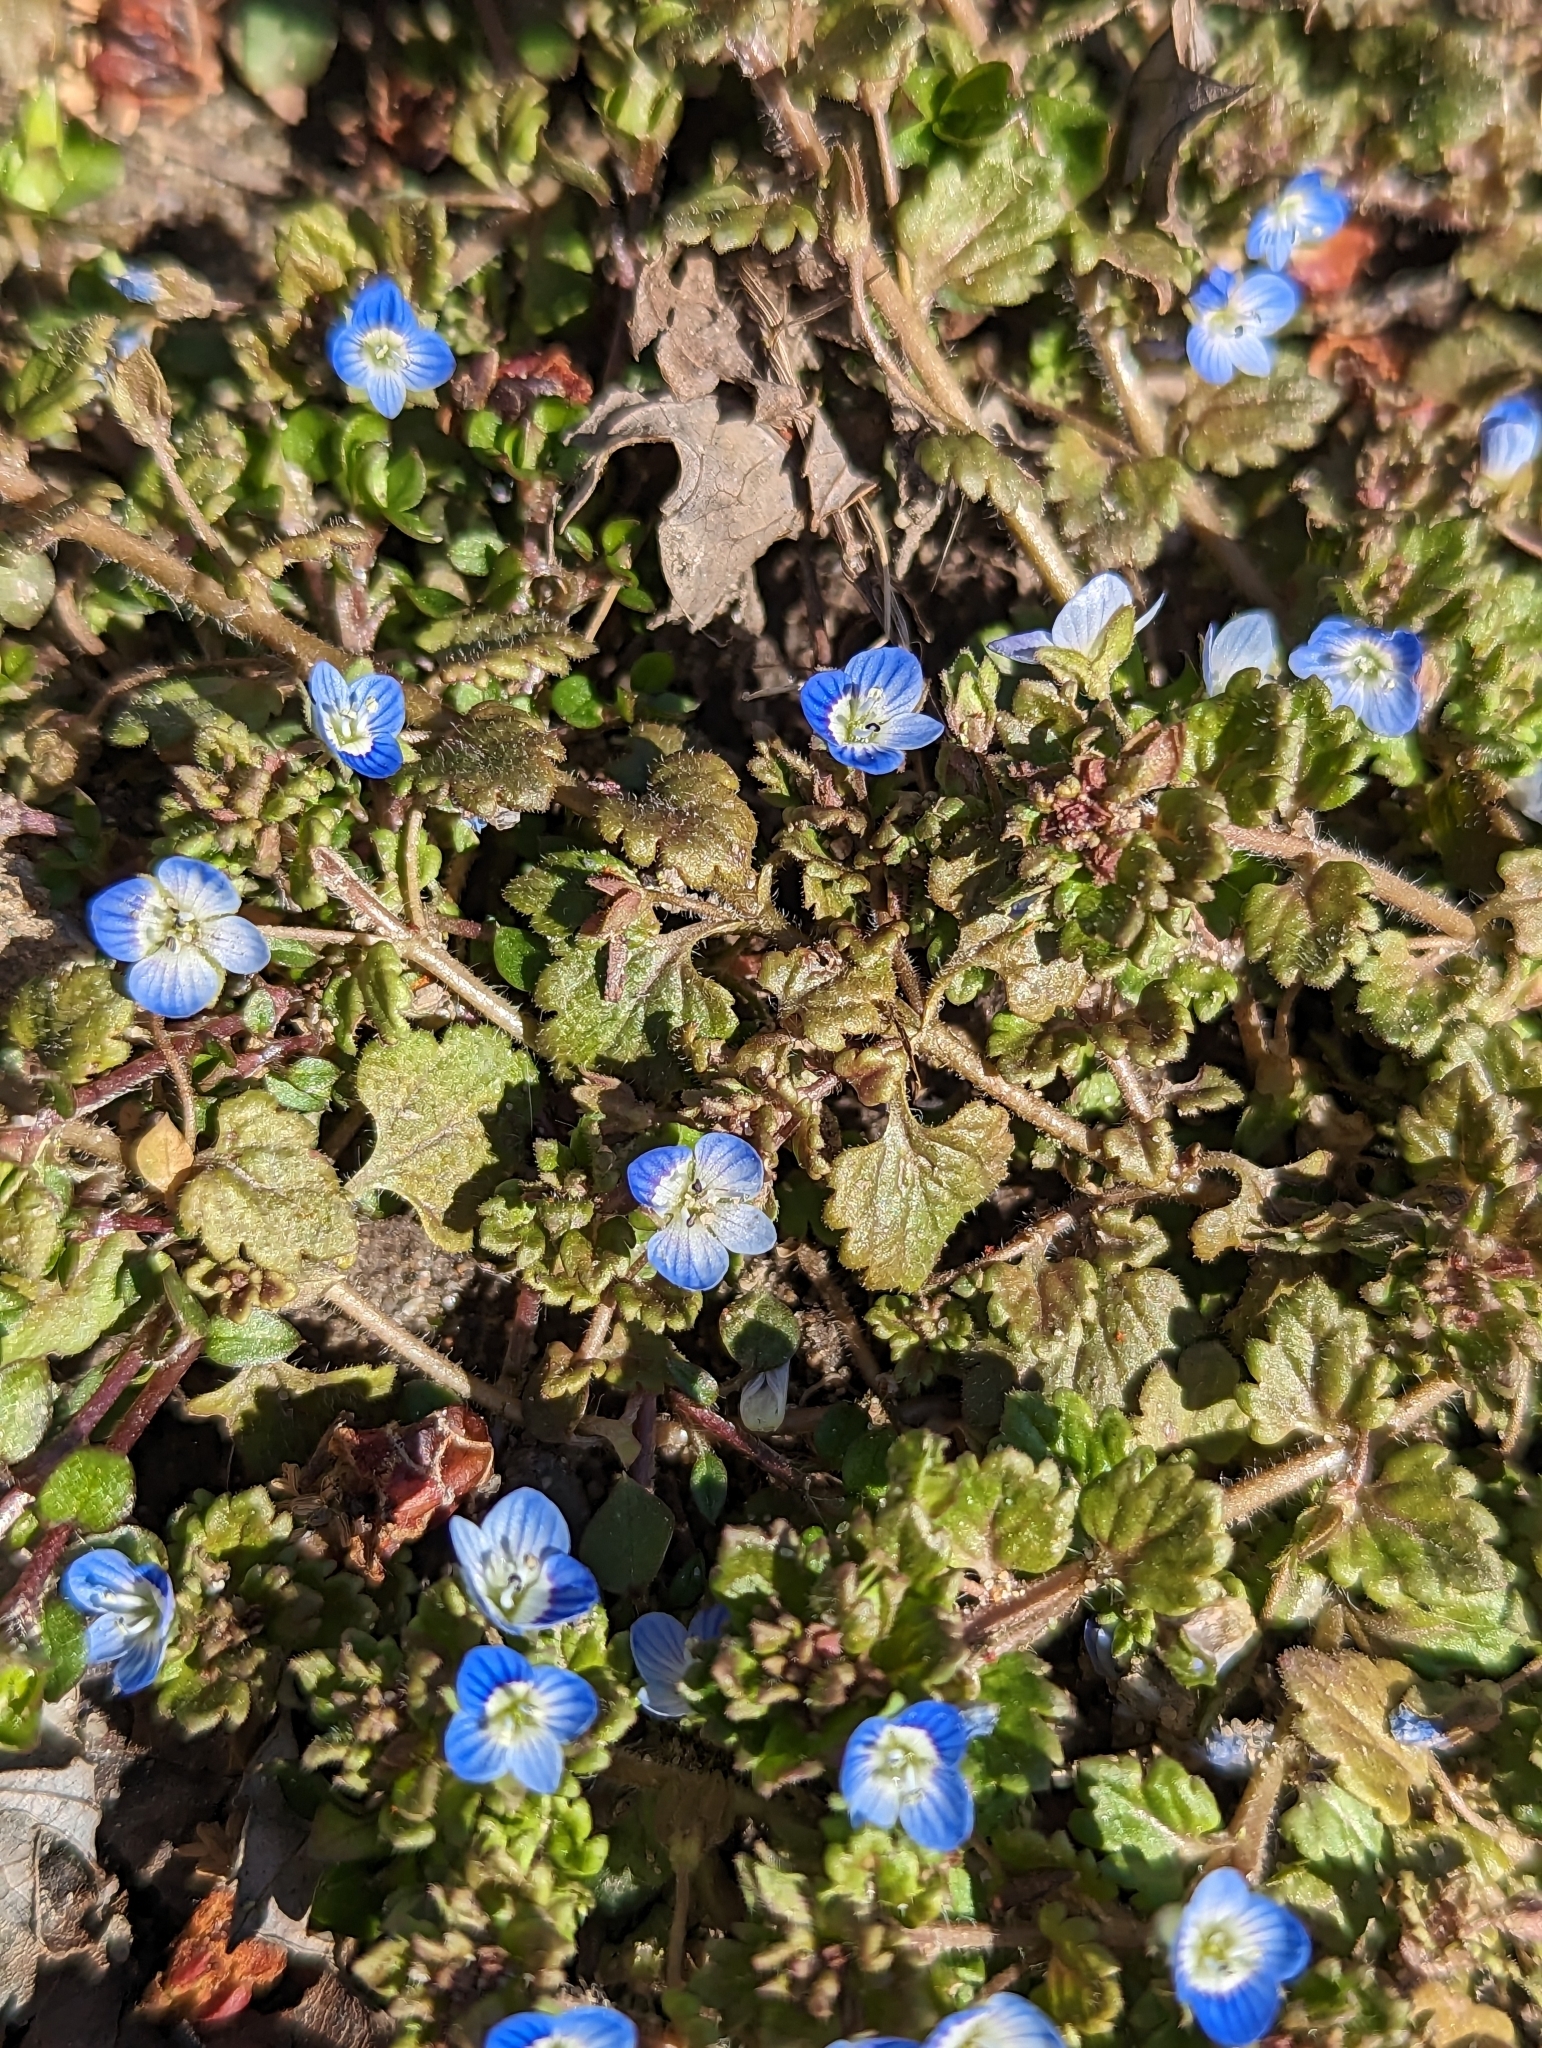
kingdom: Plantae
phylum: Tracheophyta
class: Magnoliopsida
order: Lamiales
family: Plantaginaceae
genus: Veronica
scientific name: Veronica polita
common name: Grey field-speedwell
